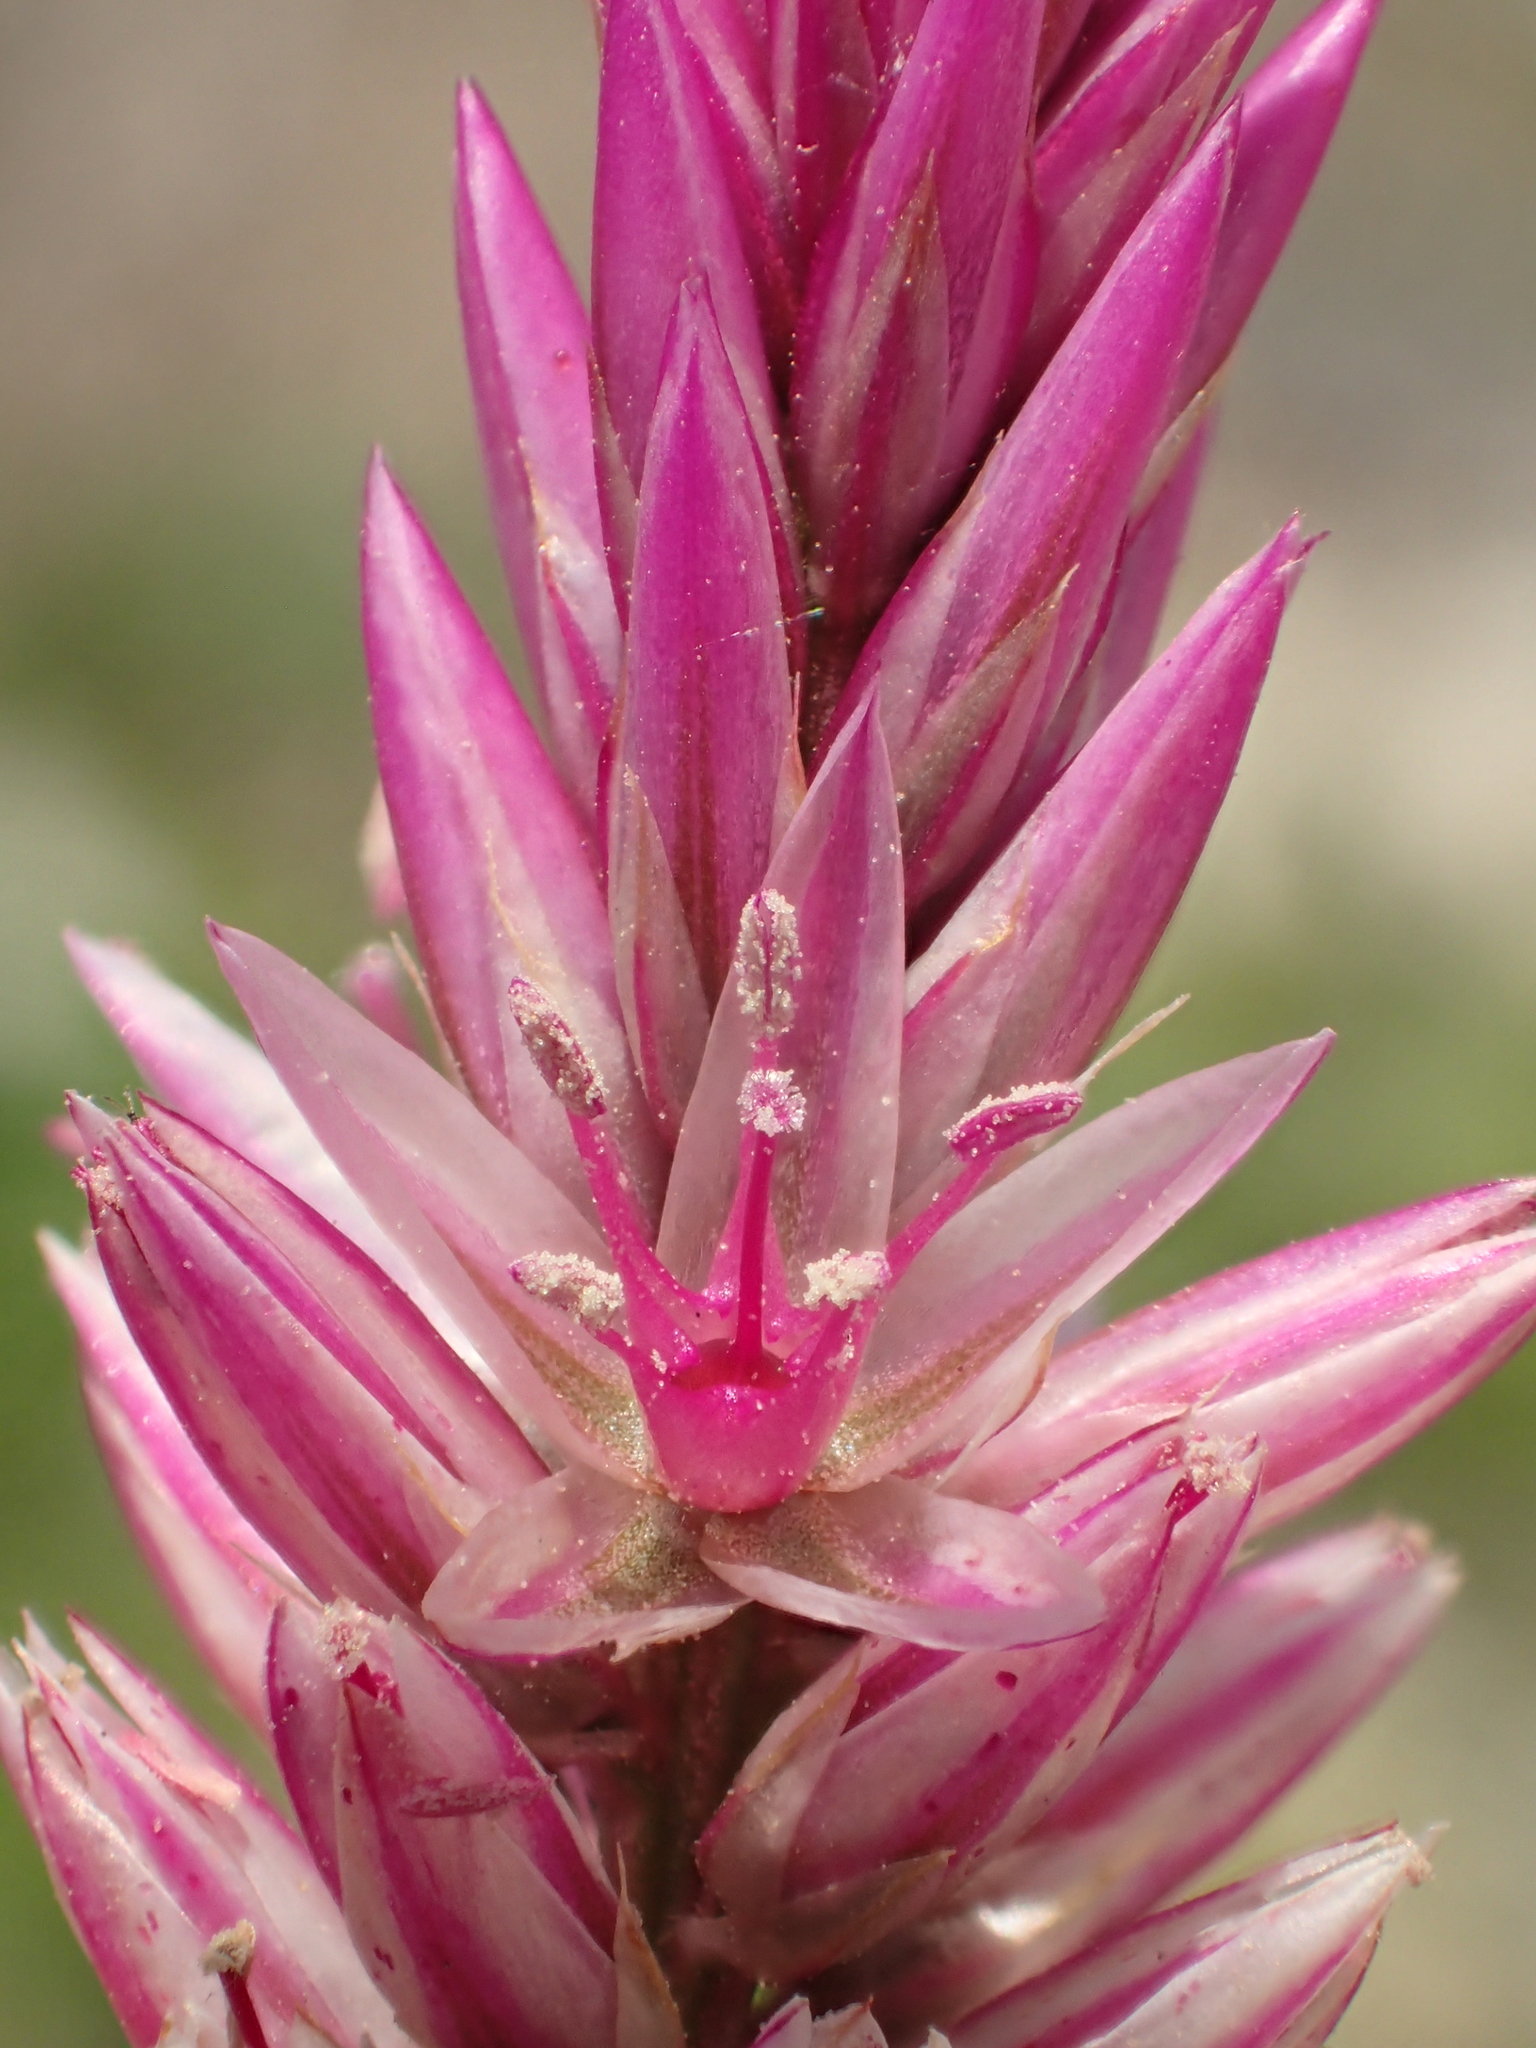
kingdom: Plantae
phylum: Tracheophyta
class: Magnoliopsida
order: Caryophyllales
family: Amaranthaceae
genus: Celosia
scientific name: Celosia argentea
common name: Feather cockscomb
